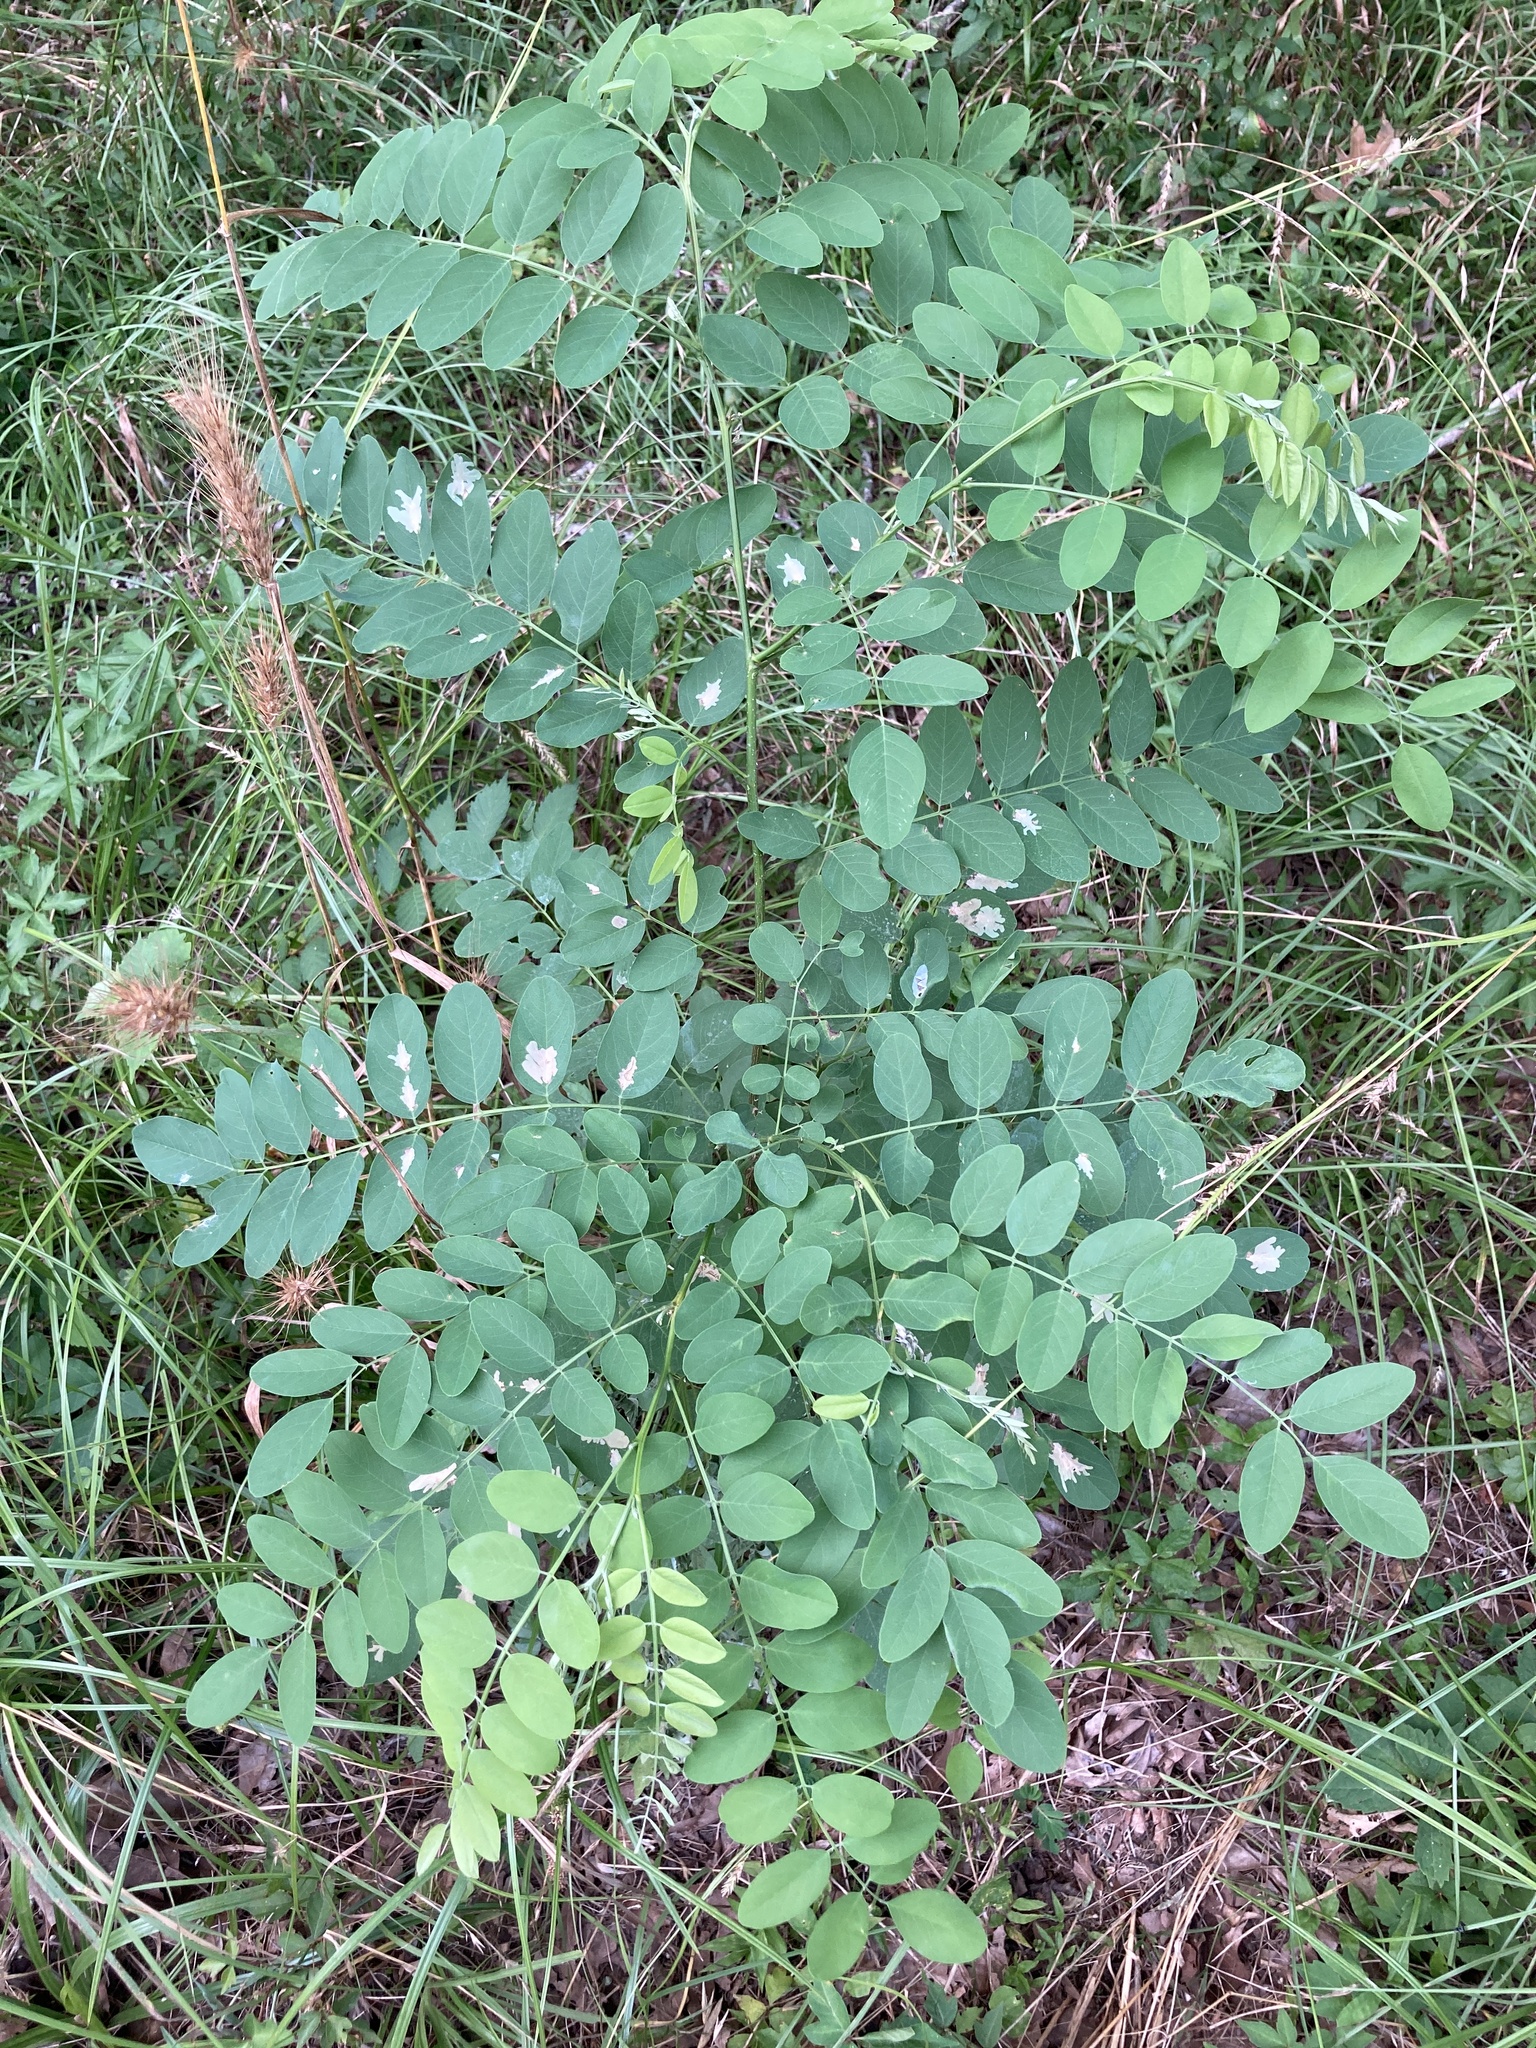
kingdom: Plantae
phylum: Tracheophyta
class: Magnoliopsida
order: Fabales
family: Fabaceae
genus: Robinia
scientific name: Robinia pseudoacacia
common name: Black locust
